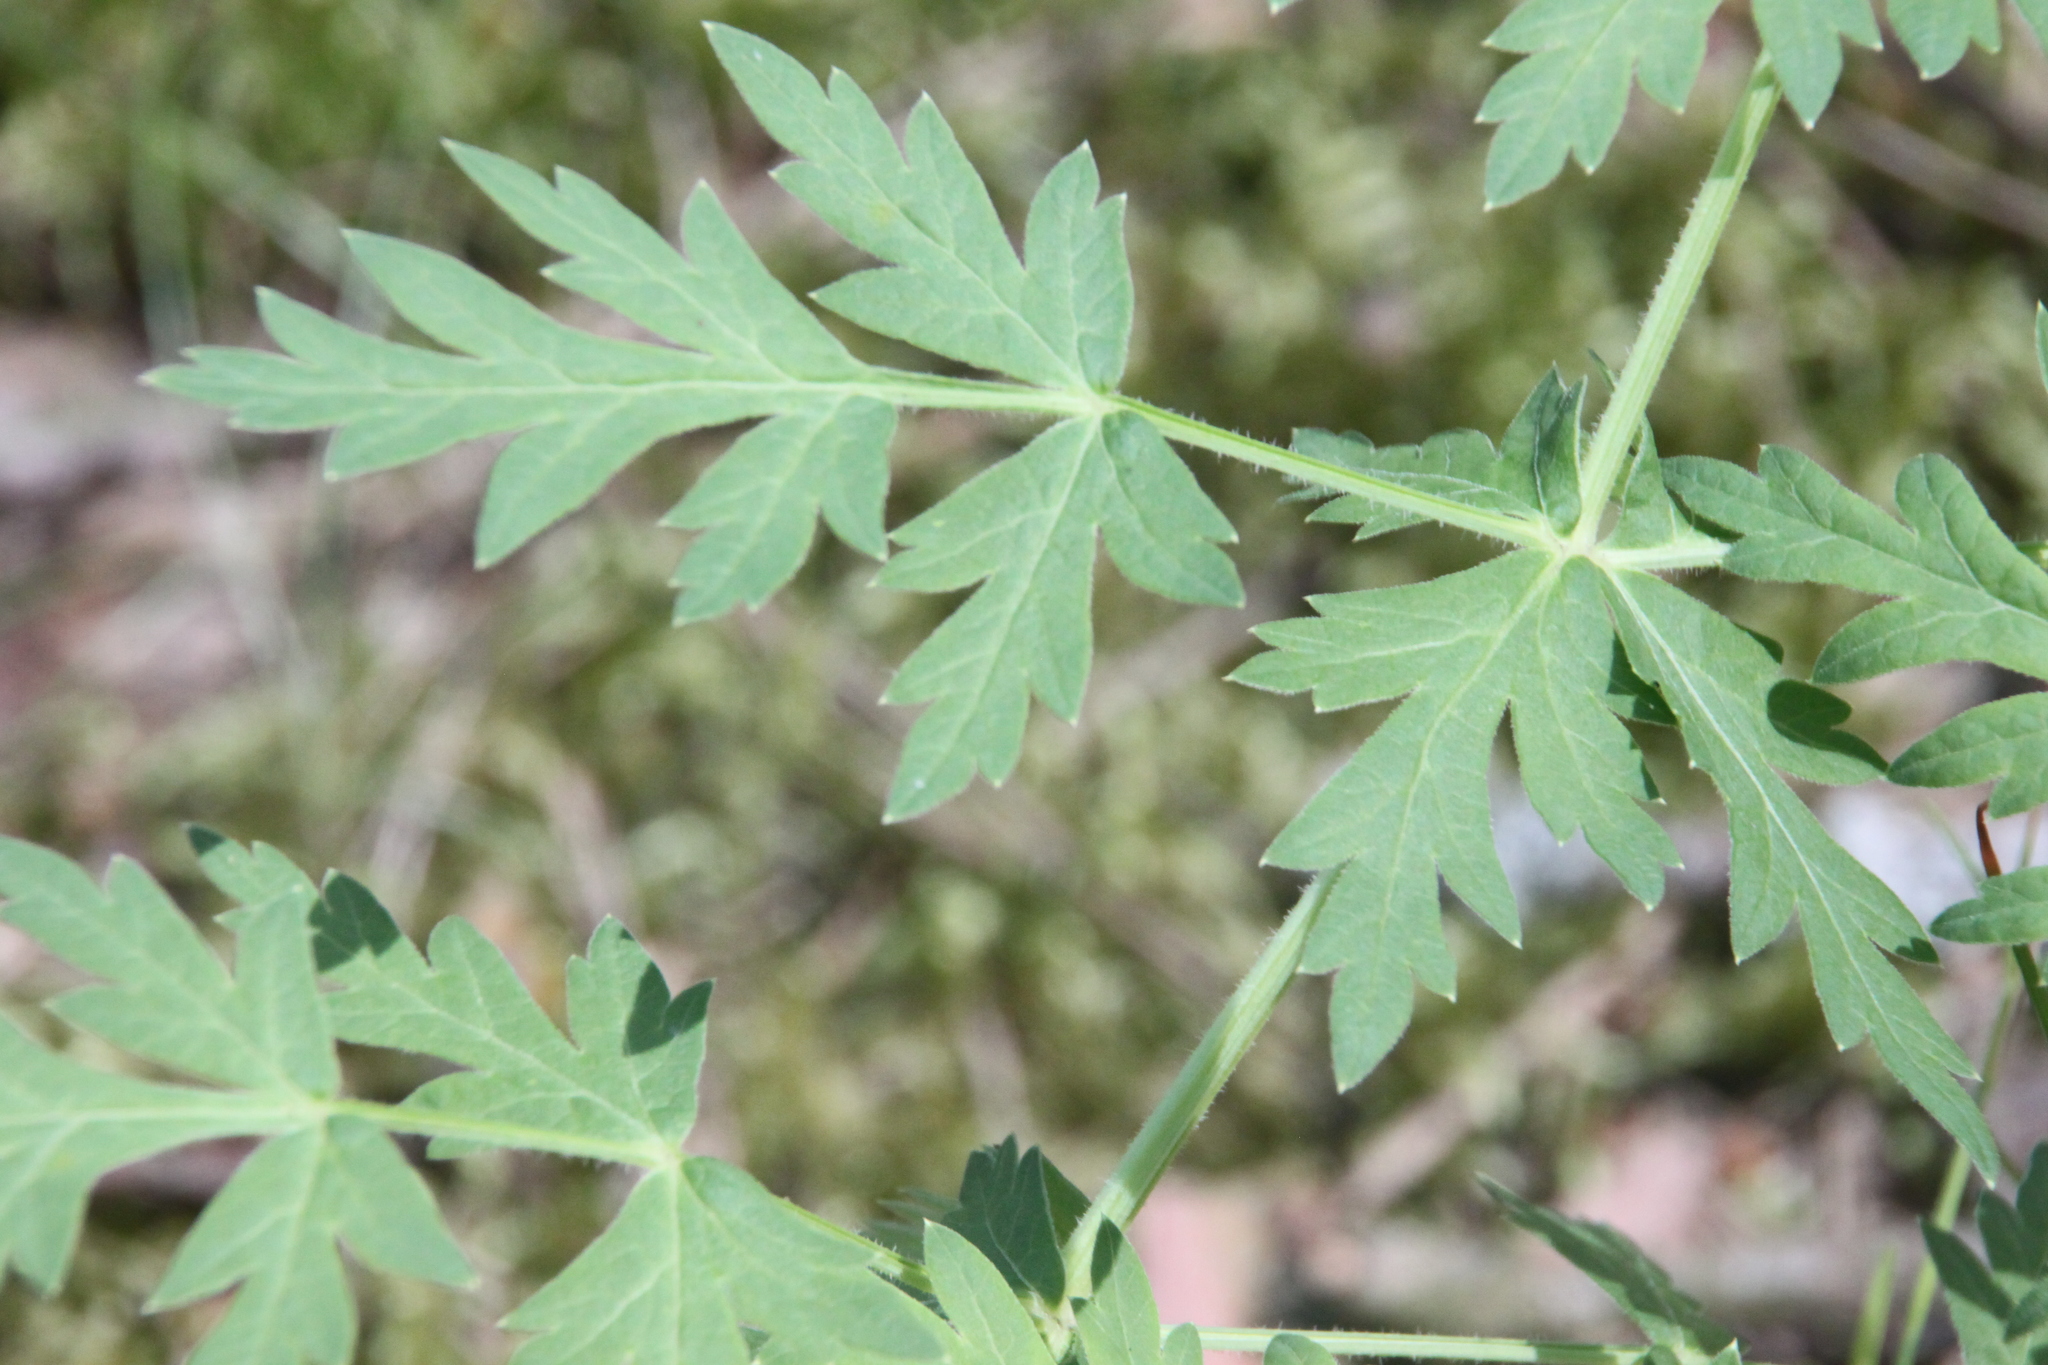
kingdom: Plantae
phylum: Tracheophyta
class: Magnoliopsida
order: Apiales
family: Apiaceae
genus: Seseli
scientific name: Seseli libanotis
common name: Mooncarrot
